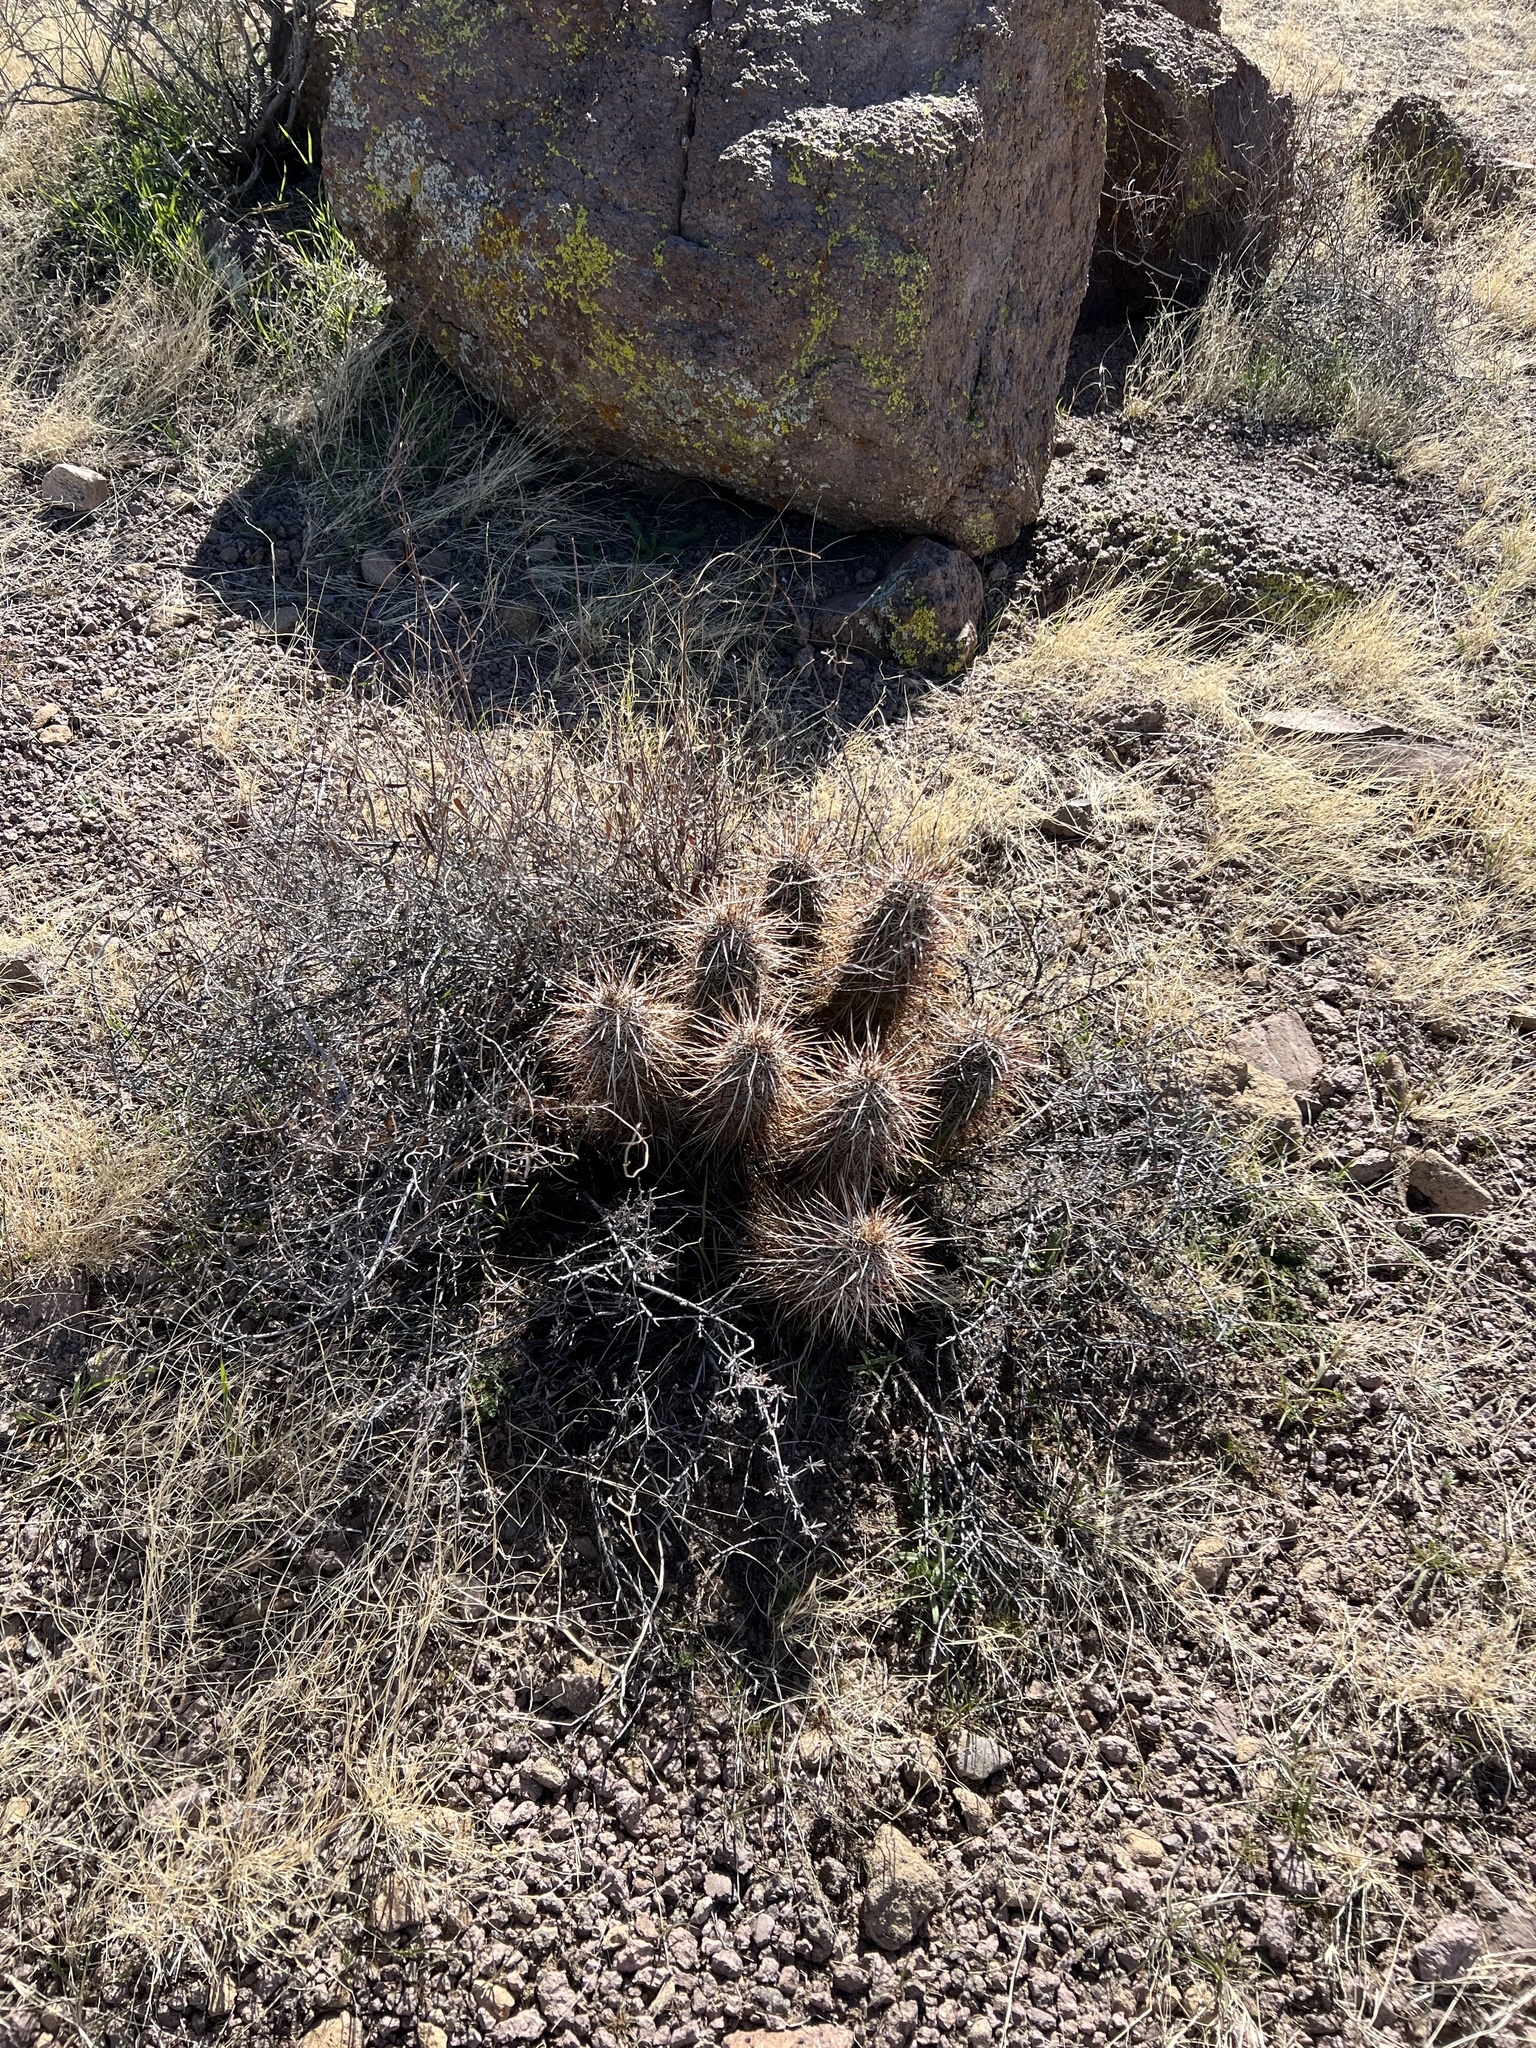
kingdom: Plantae
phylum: Tracheophyta
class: Magnoliopsida
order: Caryophyllales
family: Cactaceae
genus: Echinocereus
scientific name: Echinocereus engelmannii
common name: Engelmann's hedgehog cactus
